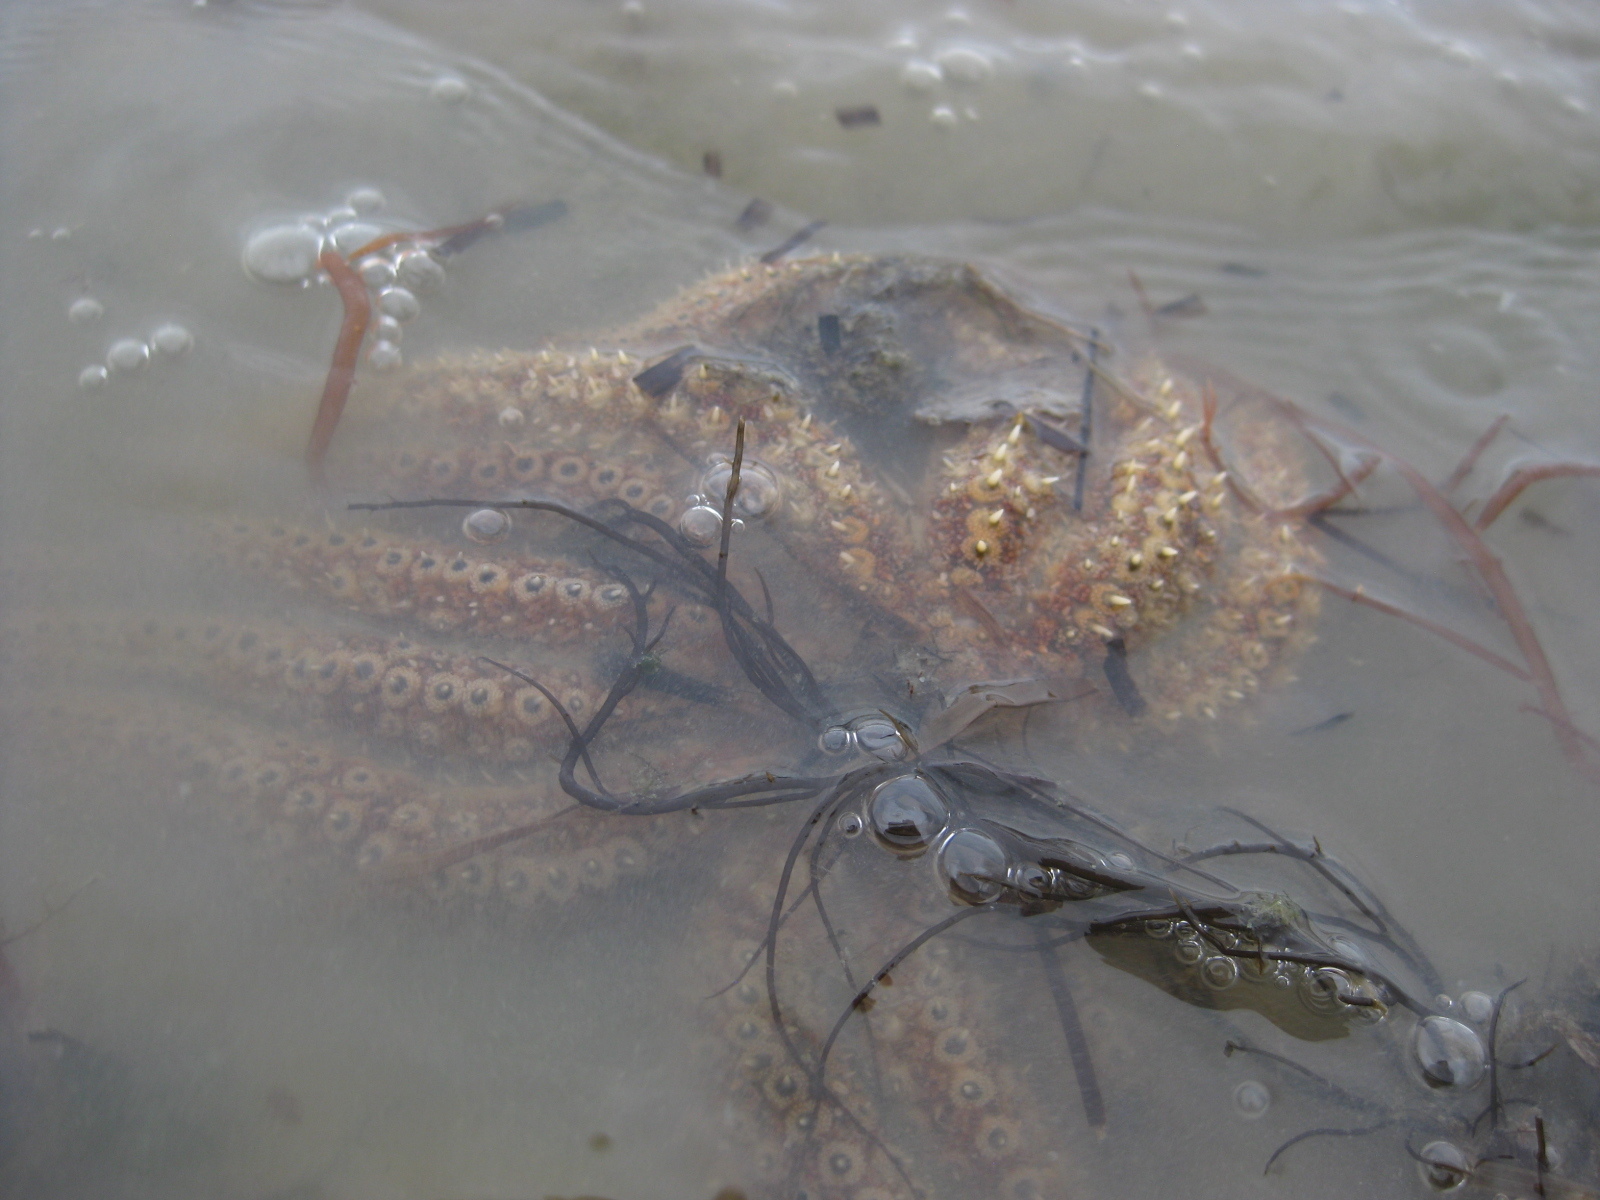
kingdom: Animalia
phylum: Echinodermata
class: Asteroidea
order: Forcipulatida
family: Asteriidae
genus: Coscinasterias
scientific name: Coscinasterias muricata
